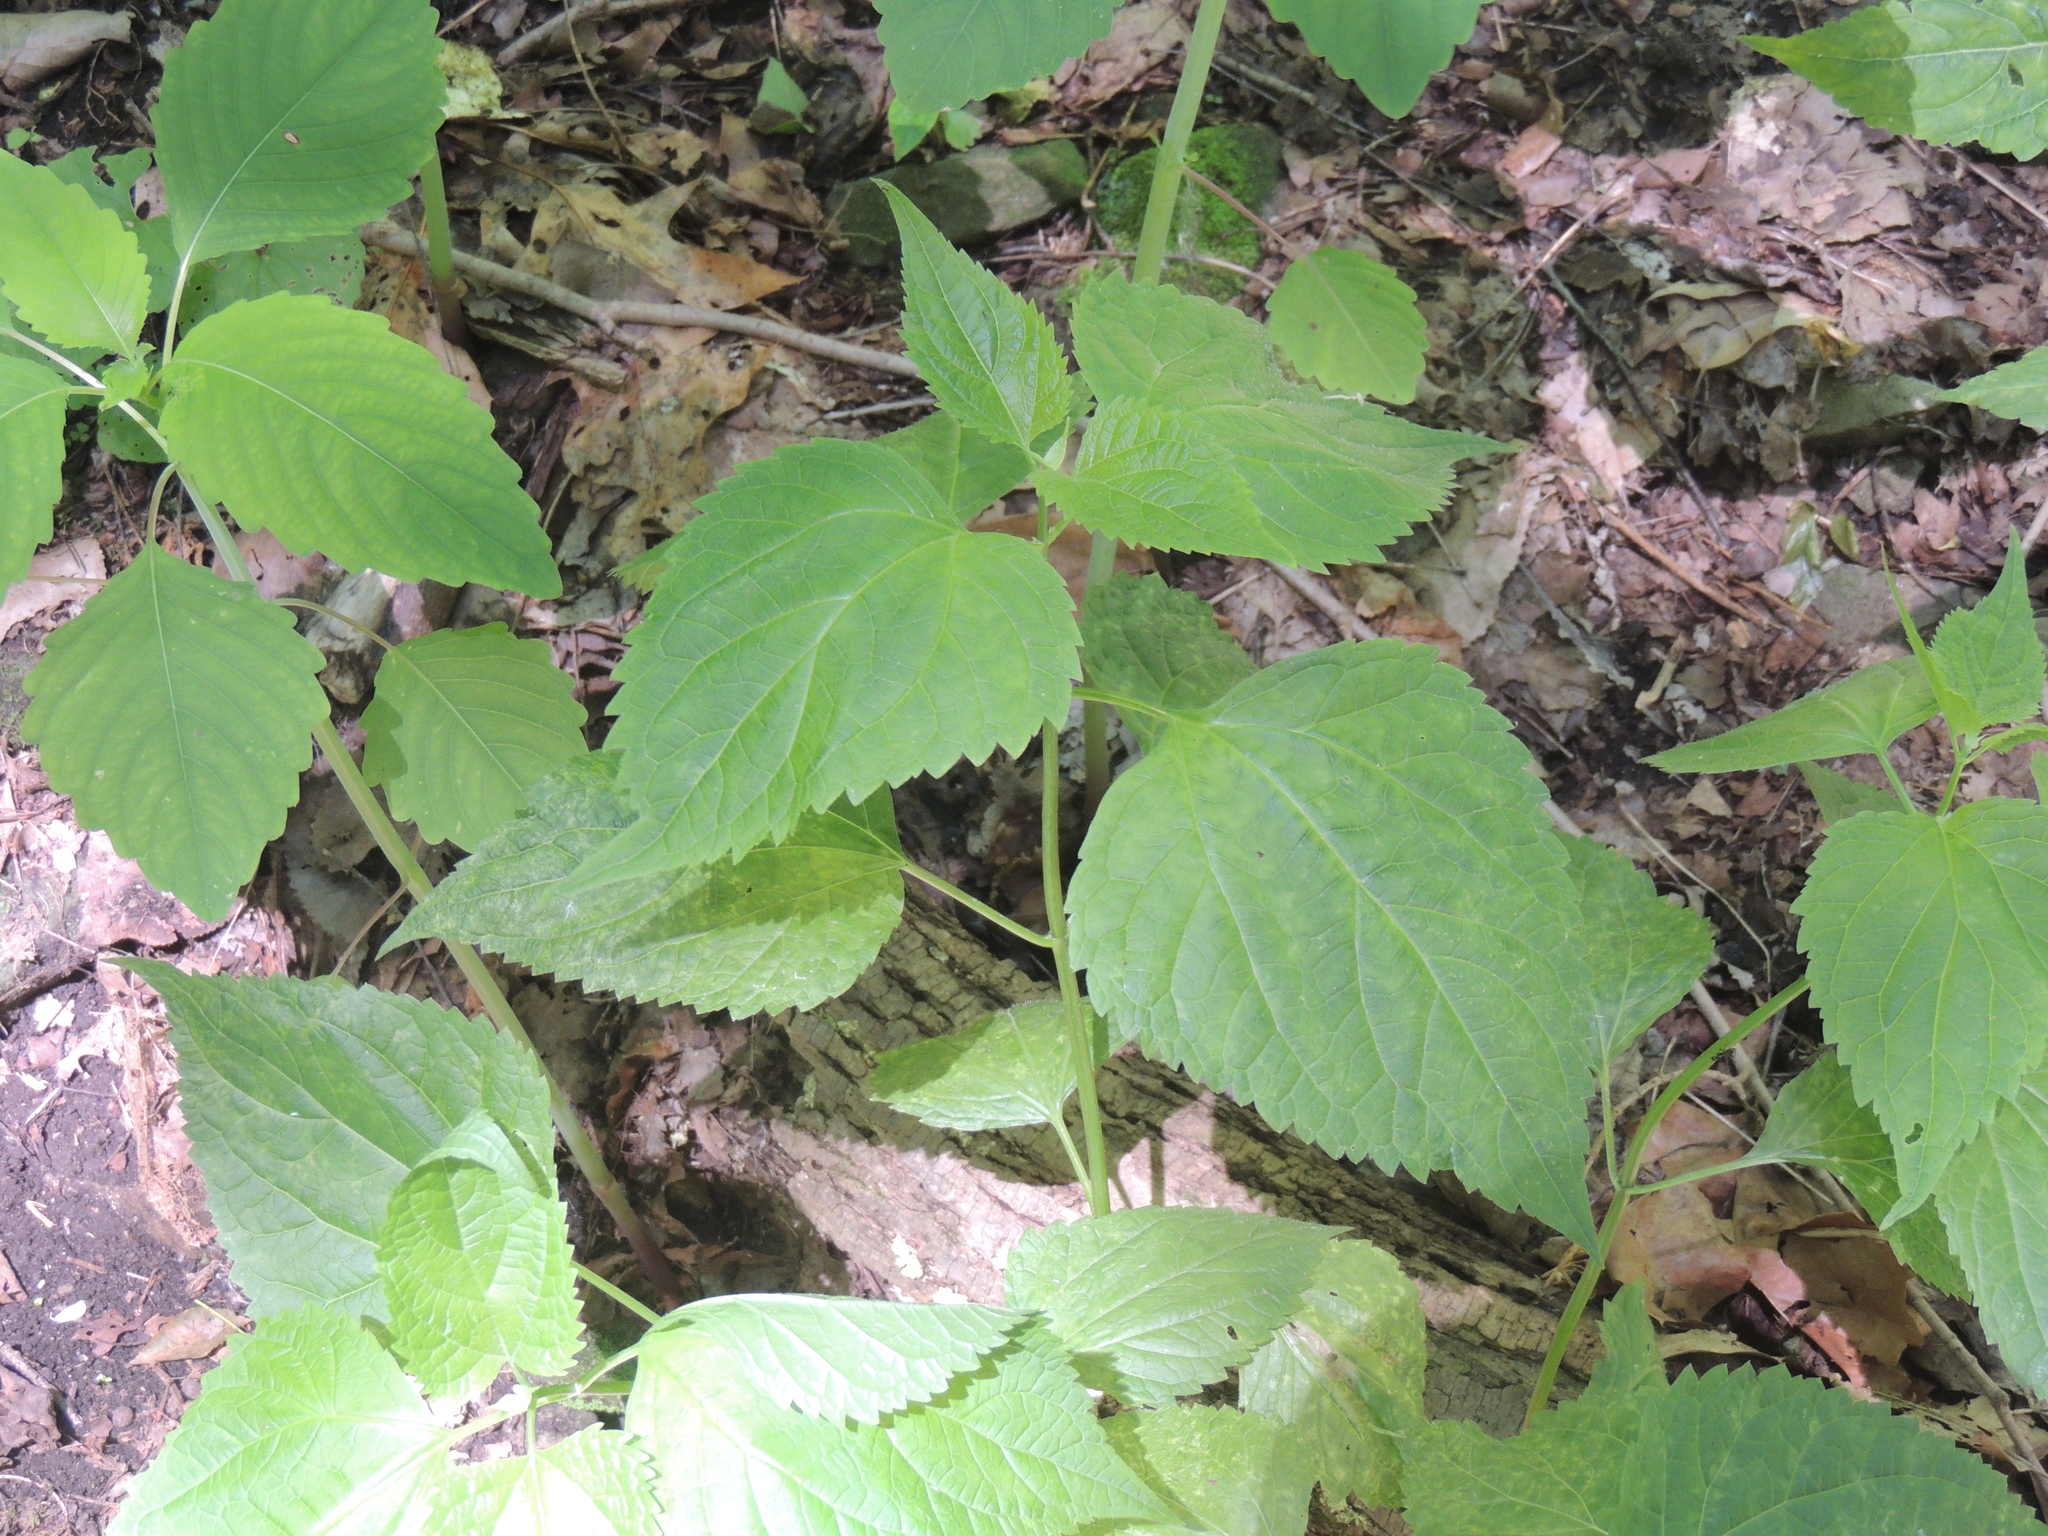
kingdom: Plantae
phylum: Tracheophyta
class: Magnoliopsida
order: Asterales
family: Asteraceae
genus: Ageratina
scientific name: Ageratina altissima
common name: White snakeroot
